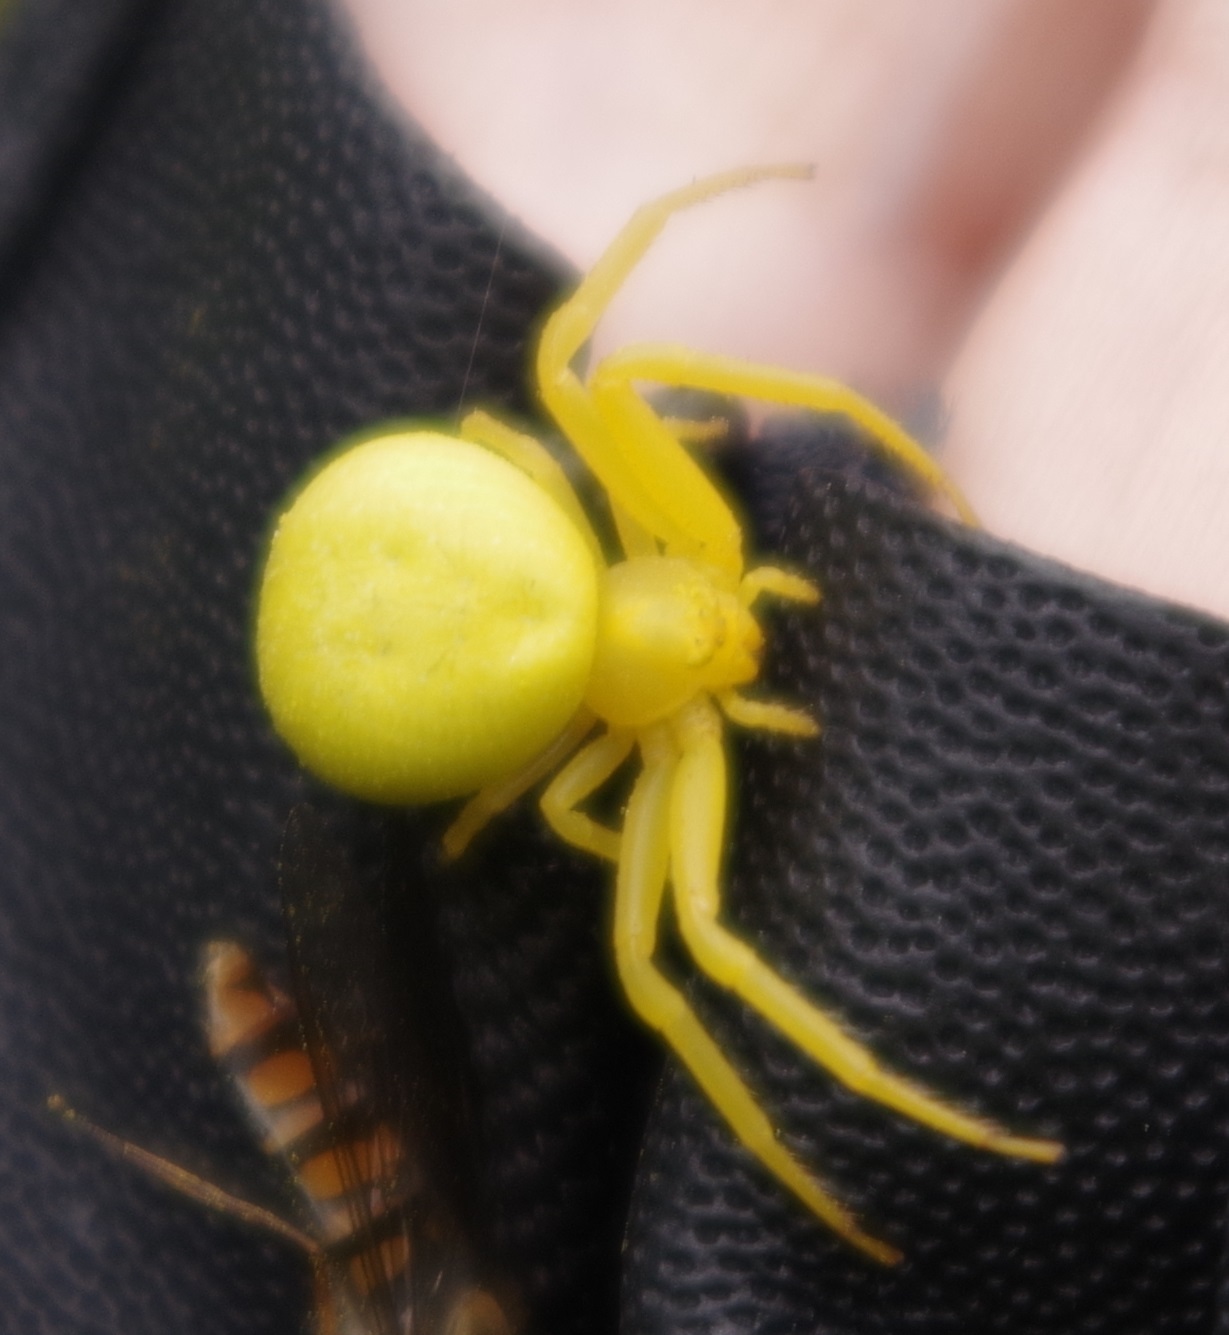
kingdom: Animalia
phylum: Arthropoda
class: Arachnida
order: Araneae
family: Thomisidae
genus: Misumena
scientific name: Misumena vatia
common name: Goldenrod crab spider
